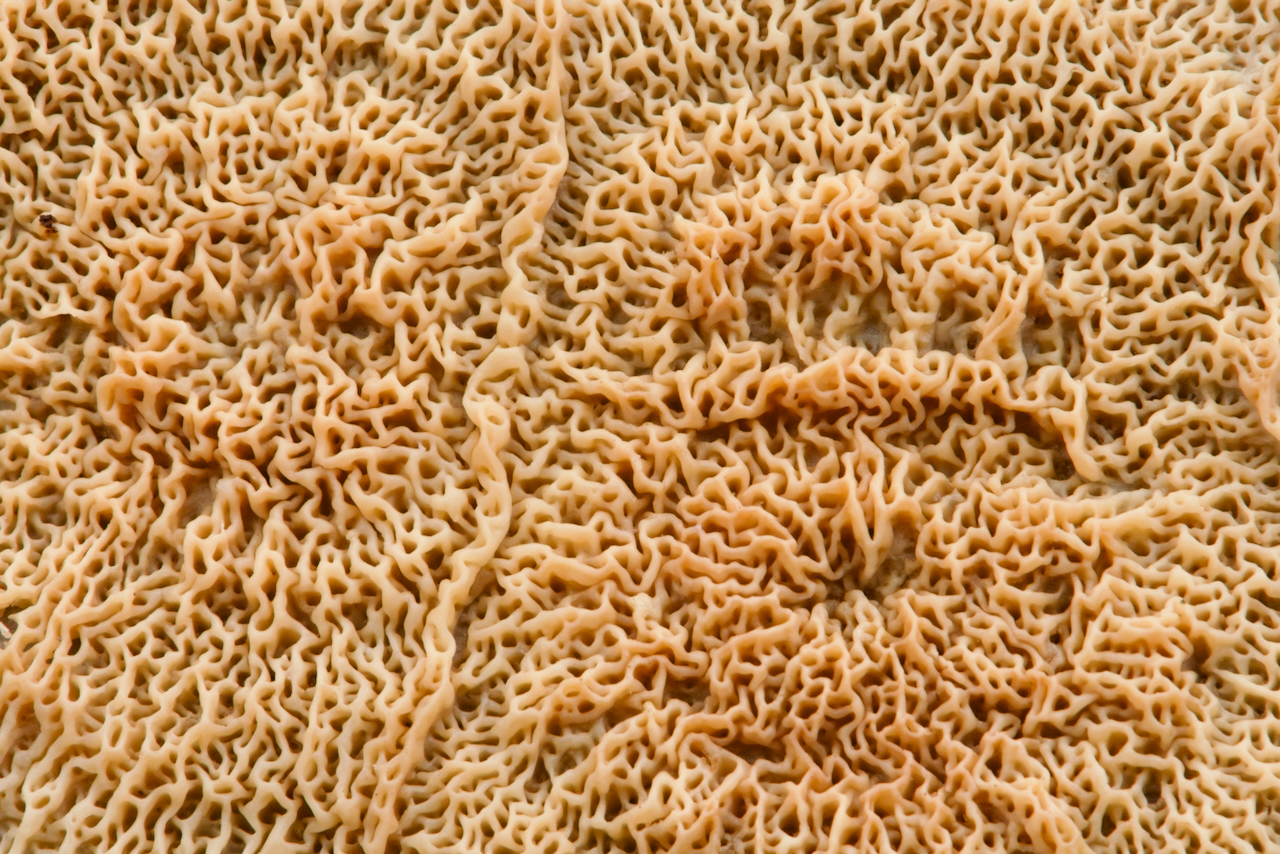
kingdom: Fungi
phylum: Basidiomycota
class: Agaricomycetes
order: Polyporales
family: Meruliaceae
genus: Phlebia
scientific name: Phlebia tremellosa
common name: Jelly rot
